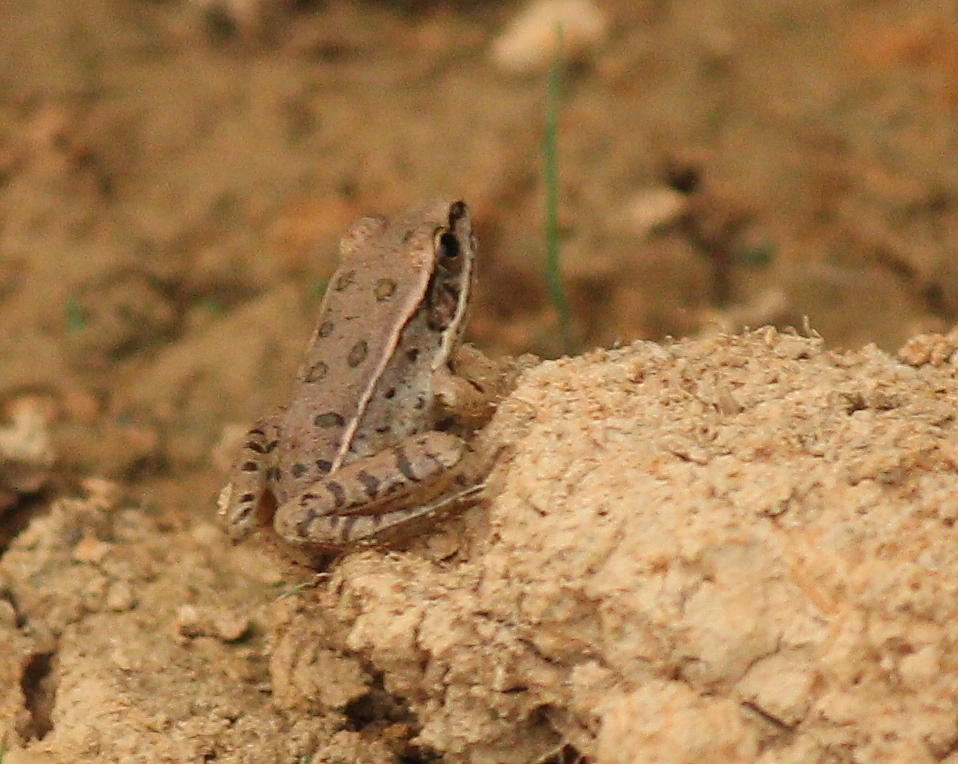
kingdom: Animalia
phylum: Chordata
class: Amphibia
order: Anura
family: Ranidae
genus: Lithobates
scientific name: Lithobates sphenocephalus
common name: Southern leopard frog
